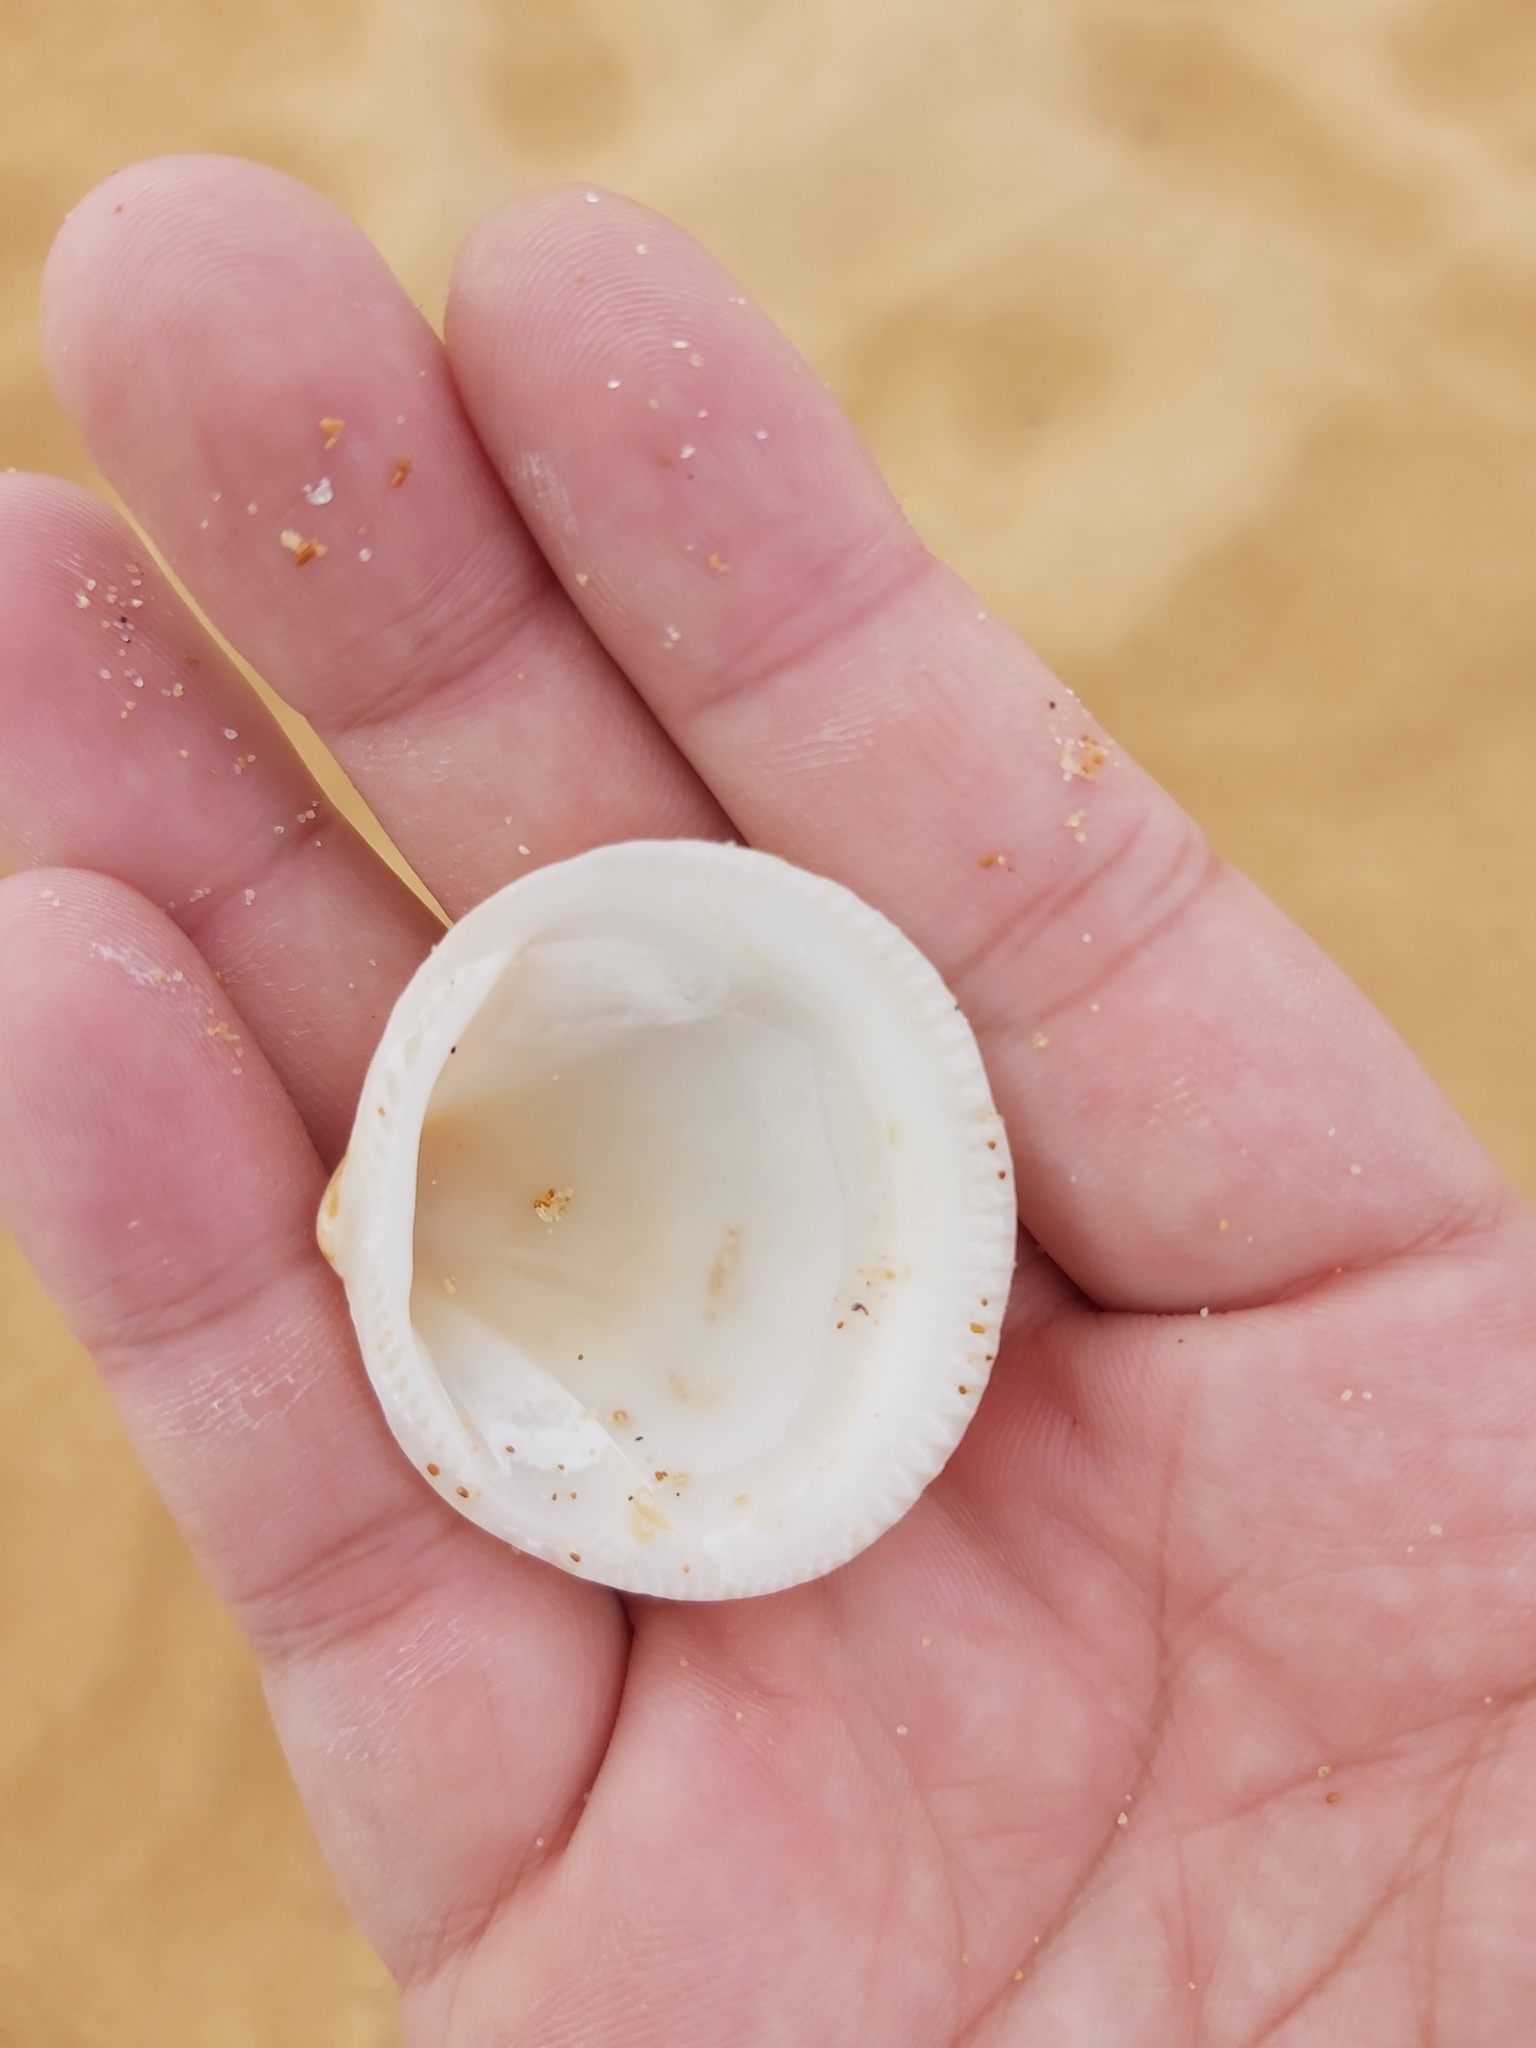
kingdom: Animalia
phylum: Mollusca
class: Bivalvia
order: Arcida
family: Glycymerididae
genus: Glycymeris
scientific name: Glycymeris grayana
